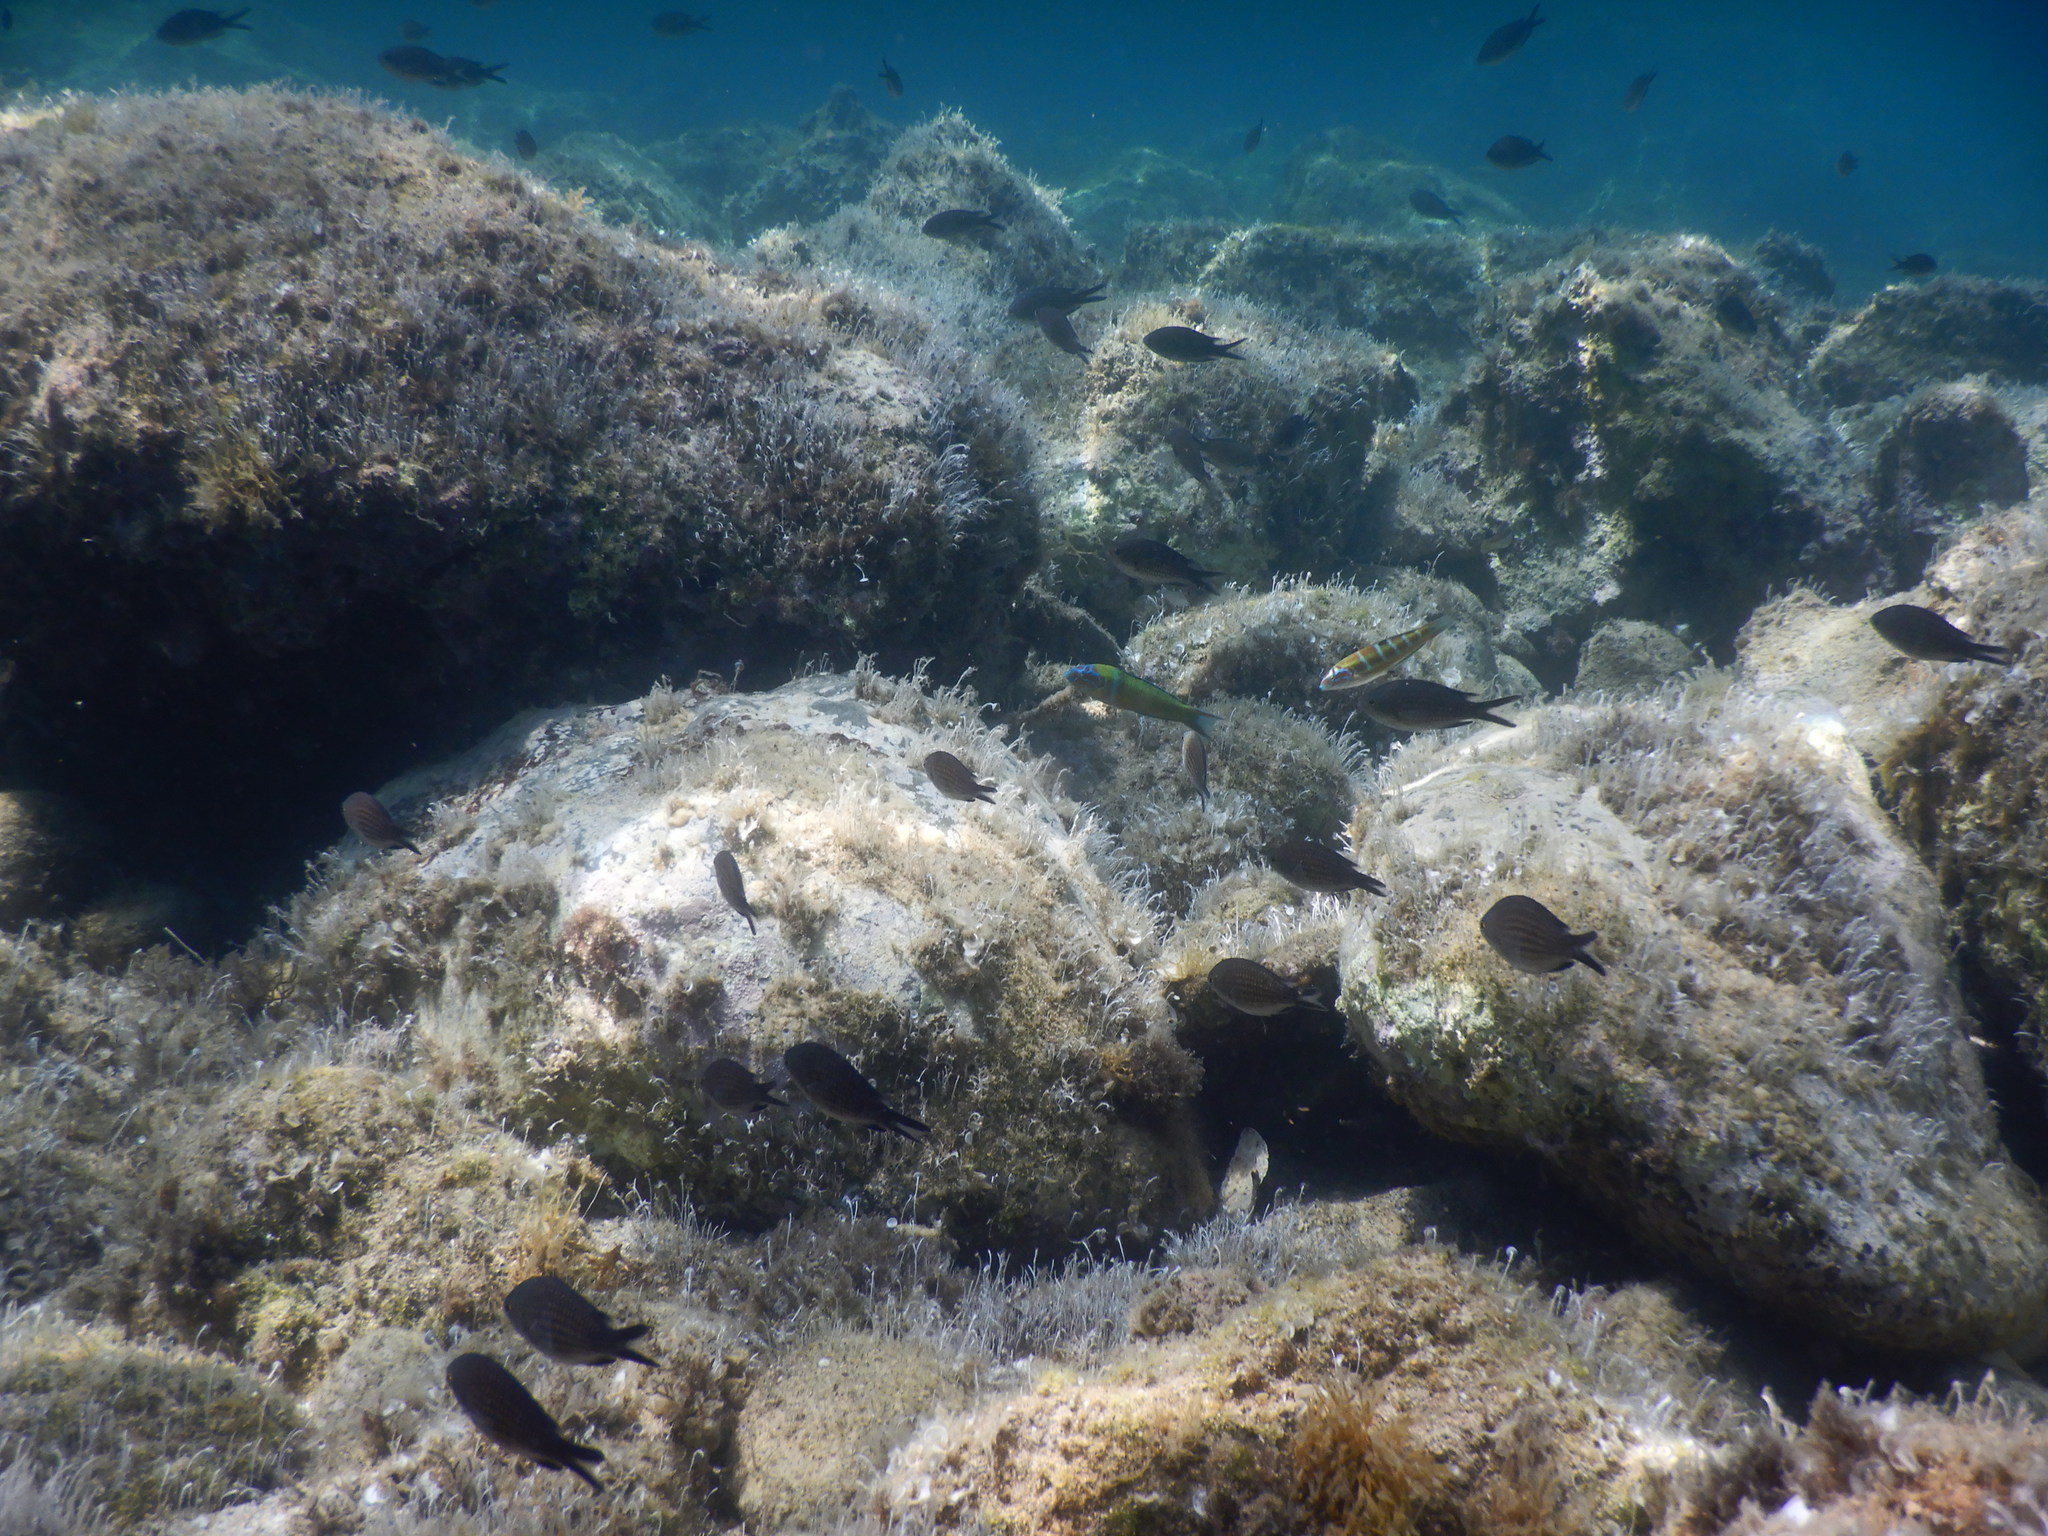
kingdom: Animalia
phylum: Chordata
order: Perciformes
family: Labridae
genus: Thalassoma
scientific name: Thalassoma pavo
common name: Ornate wrasse
